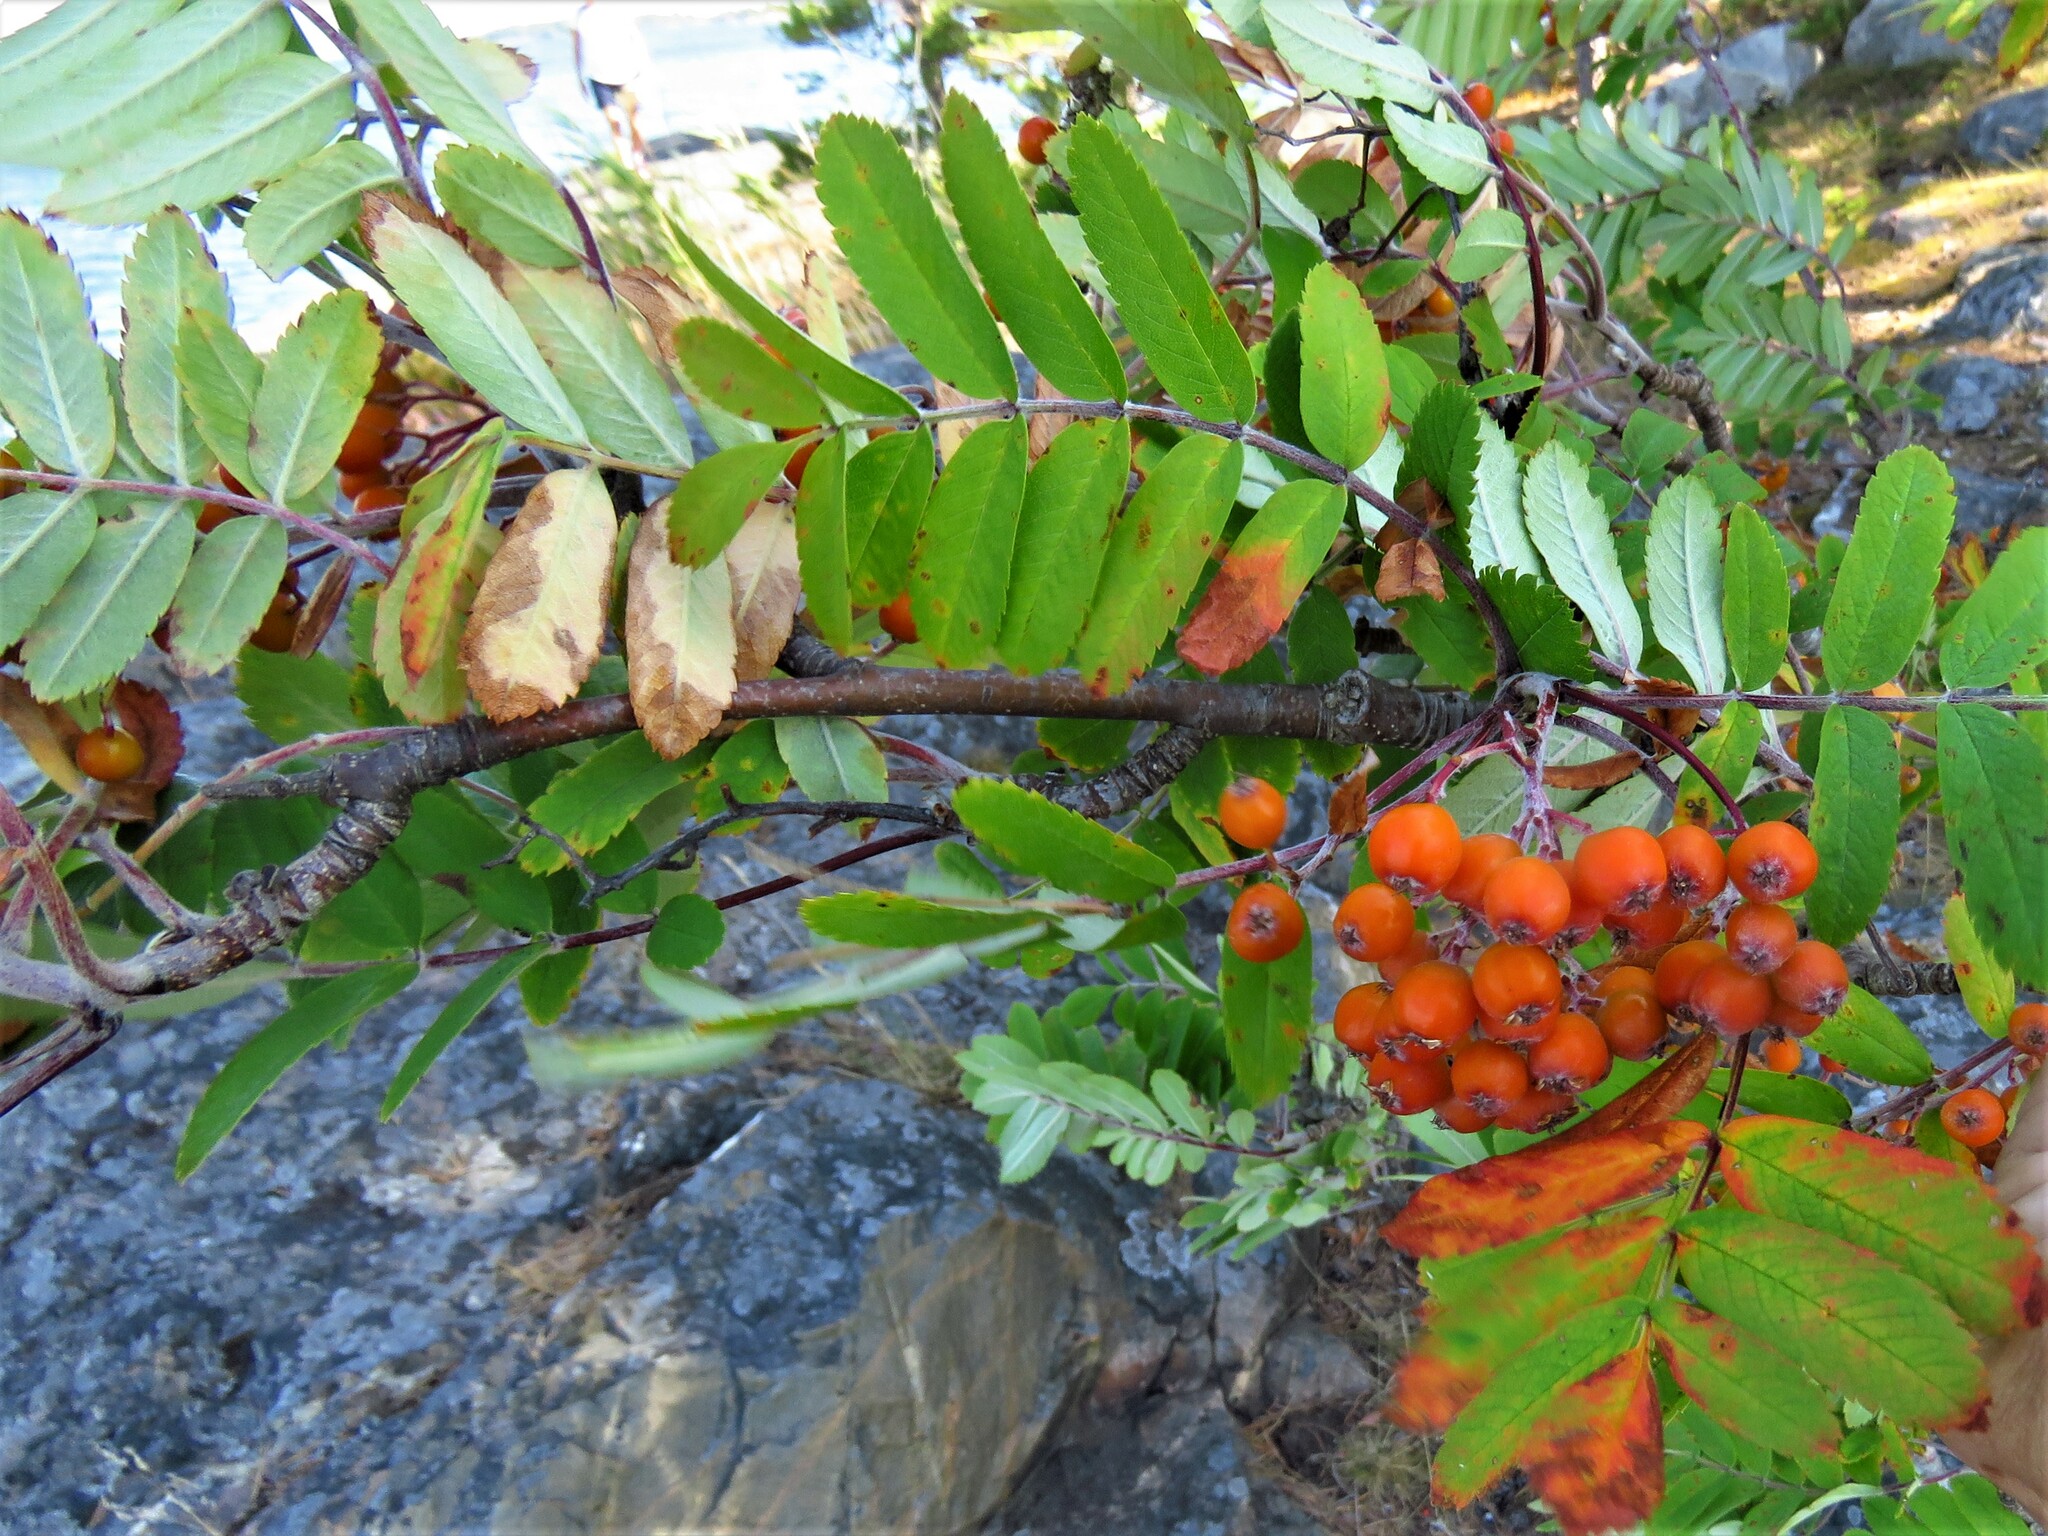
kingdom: Plantae
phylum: Tracheophyta
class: Magnoliopsida
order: Rosales
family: Rosaceae
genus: Sorbus
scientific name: Sorbus aucuparia
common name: Rowan
